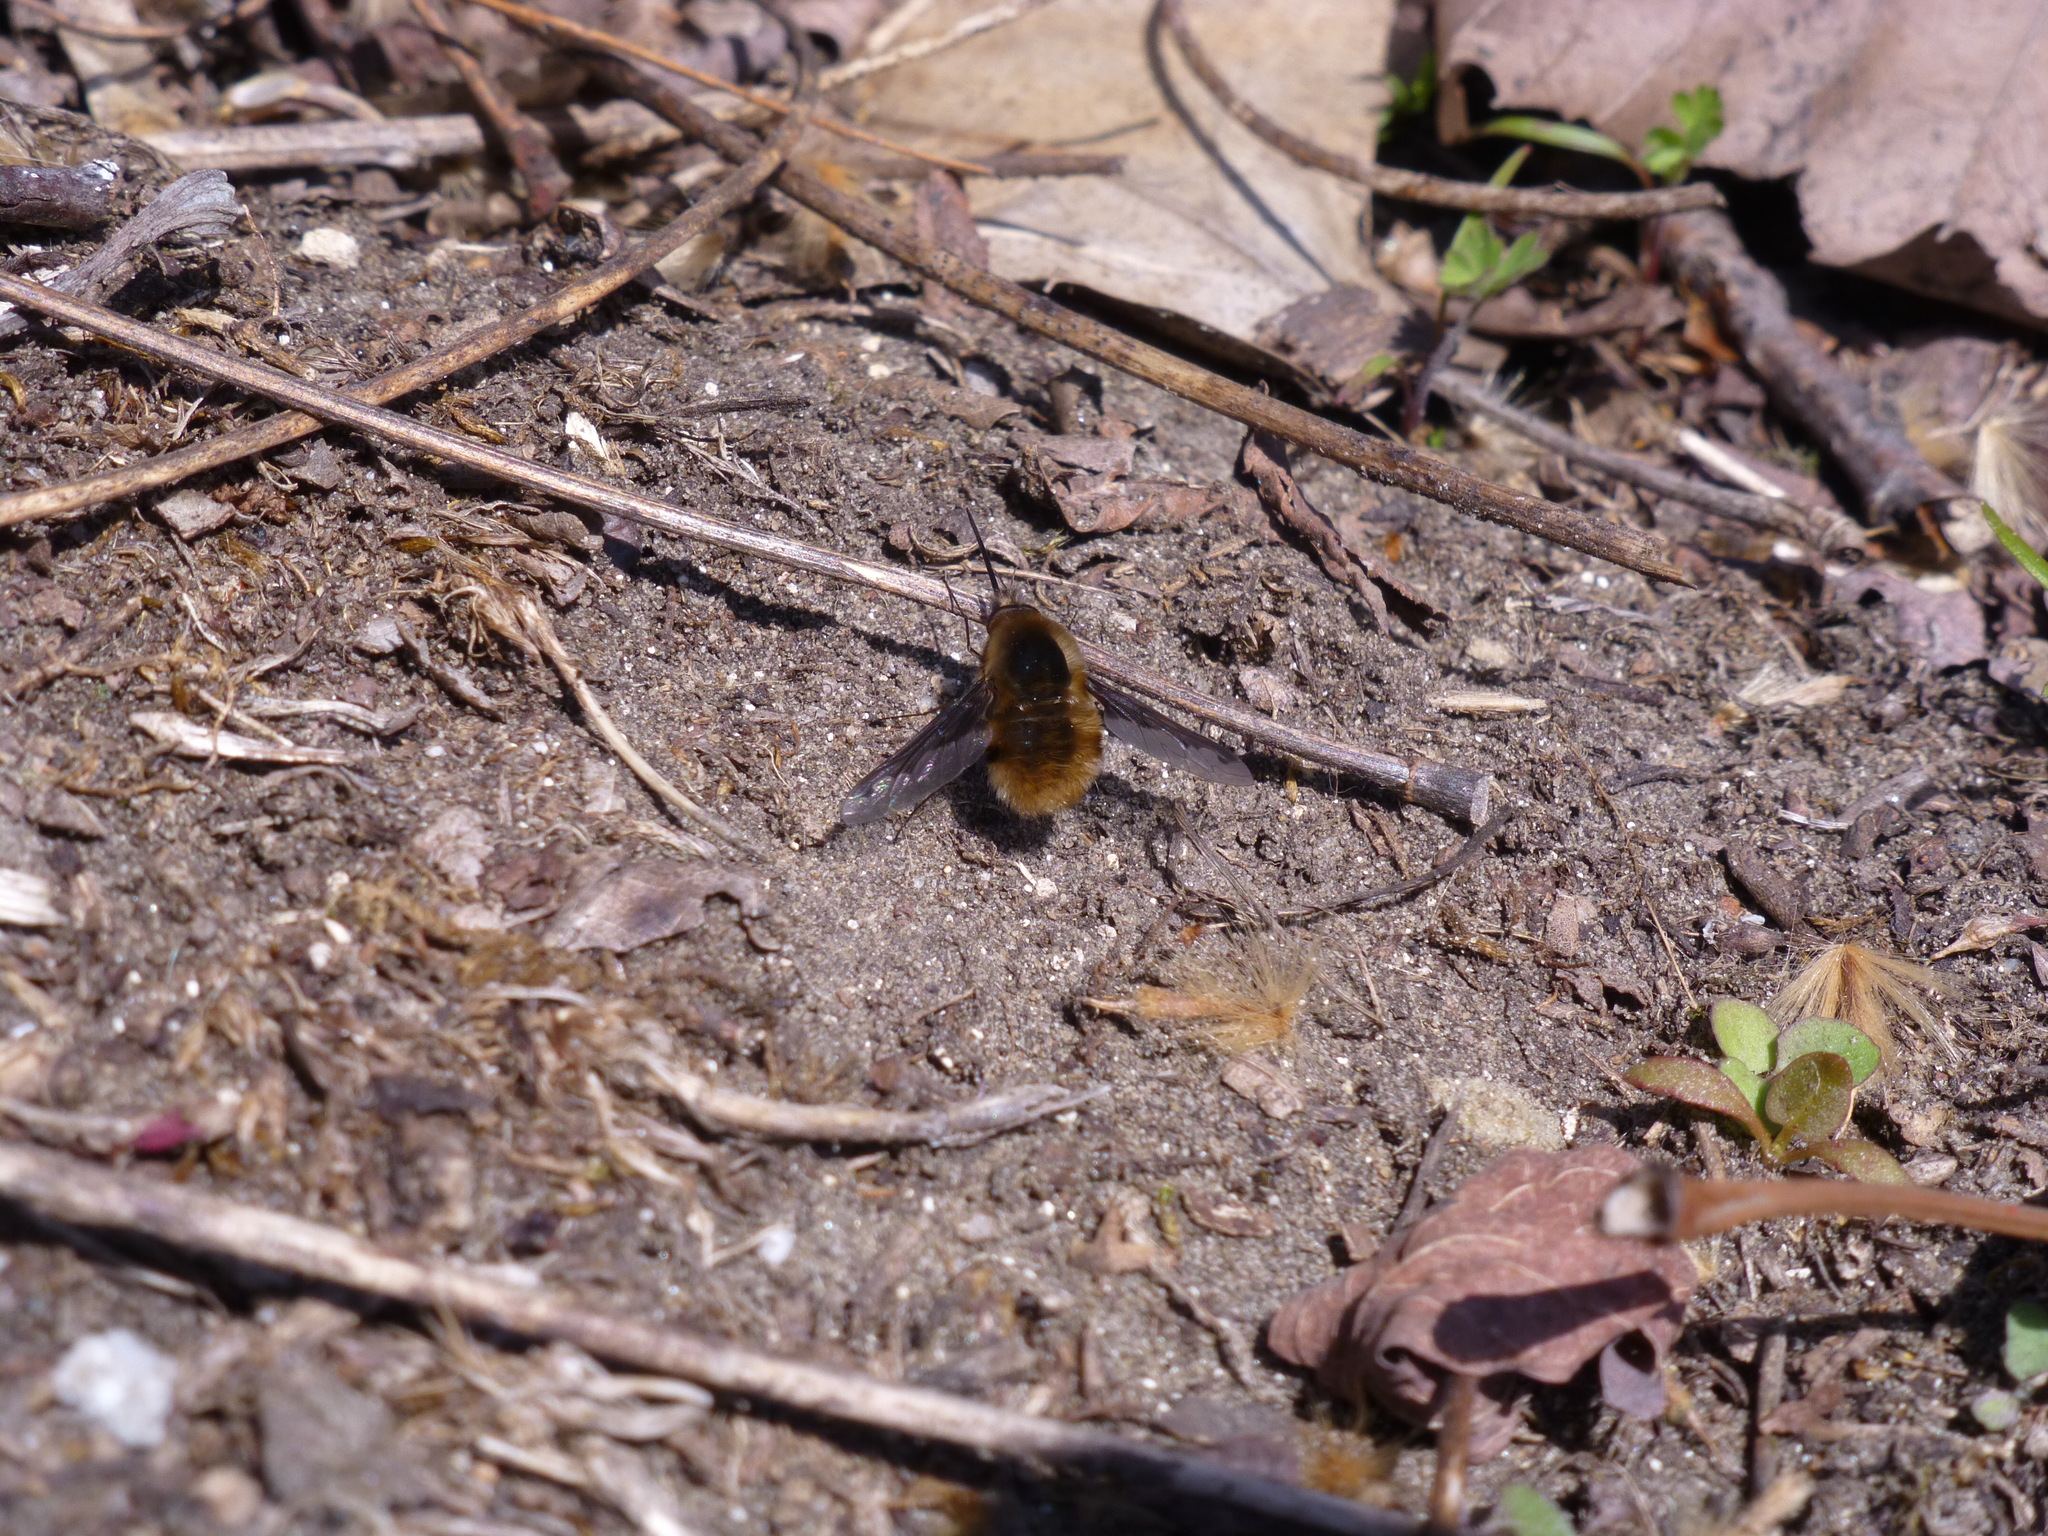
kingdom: Animalia
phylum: Arthropoda
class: Insecta
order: Diptera
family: Bombyliidae
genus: Bombylius
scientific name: Bombylius major
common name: Bee fly
